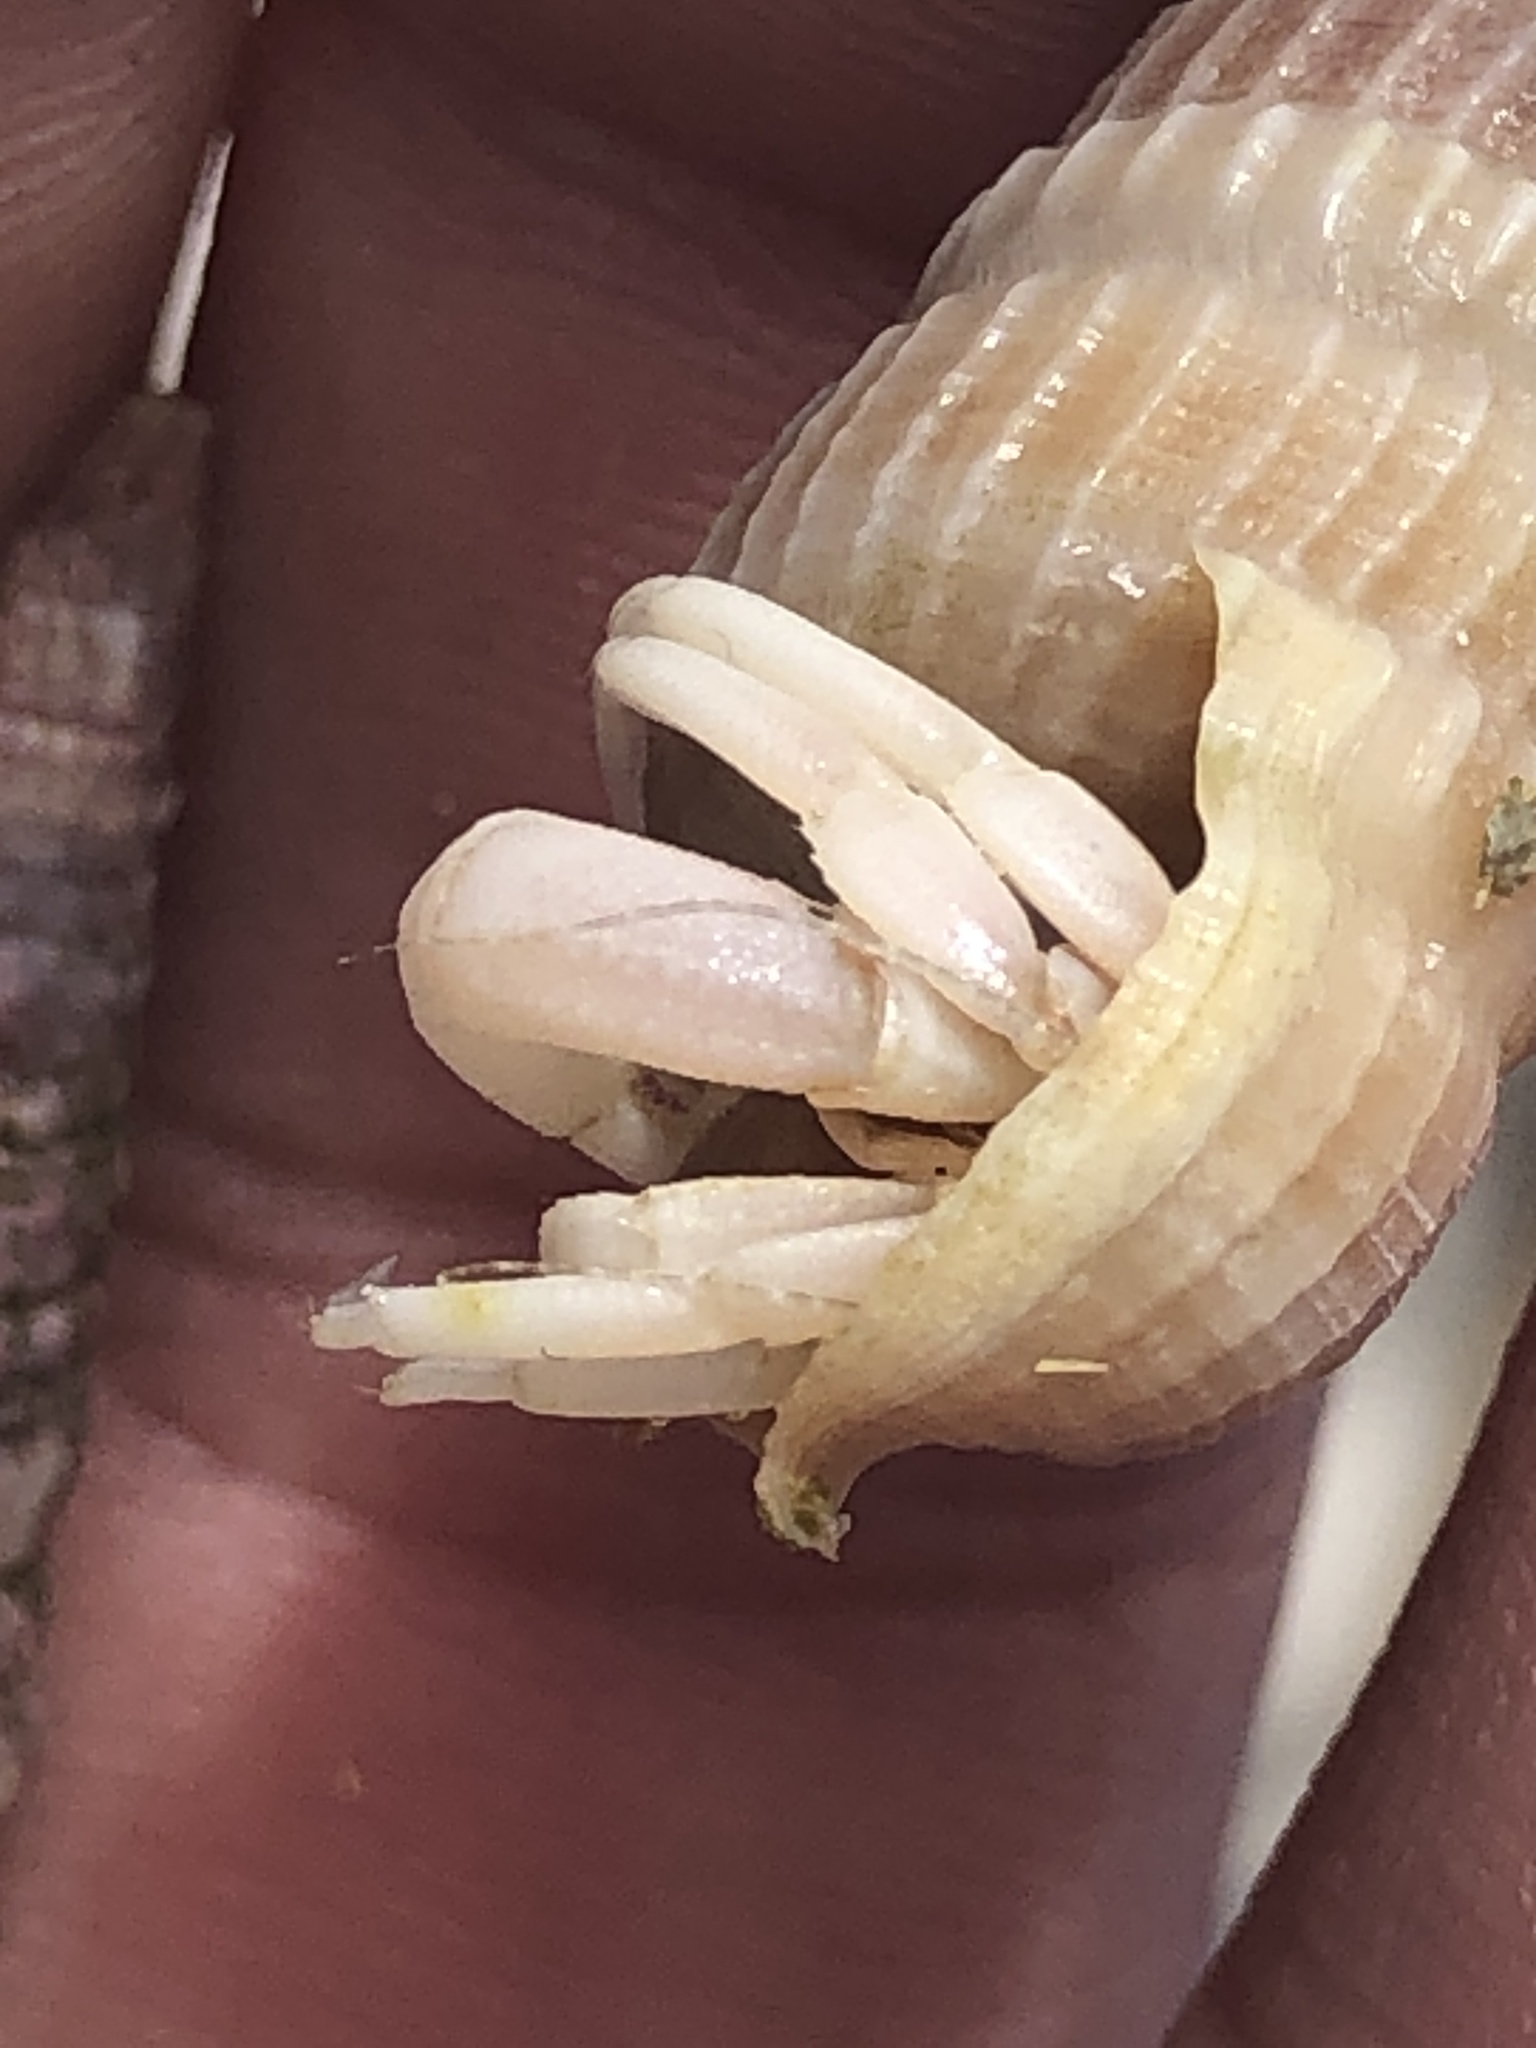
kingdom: Animalia
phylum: Arthropoda
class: Malacostraca
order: Decapoda
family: Paguridae
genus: Pagurus
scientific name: Pagurus longicarpus
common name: Long-armed hermit crab
